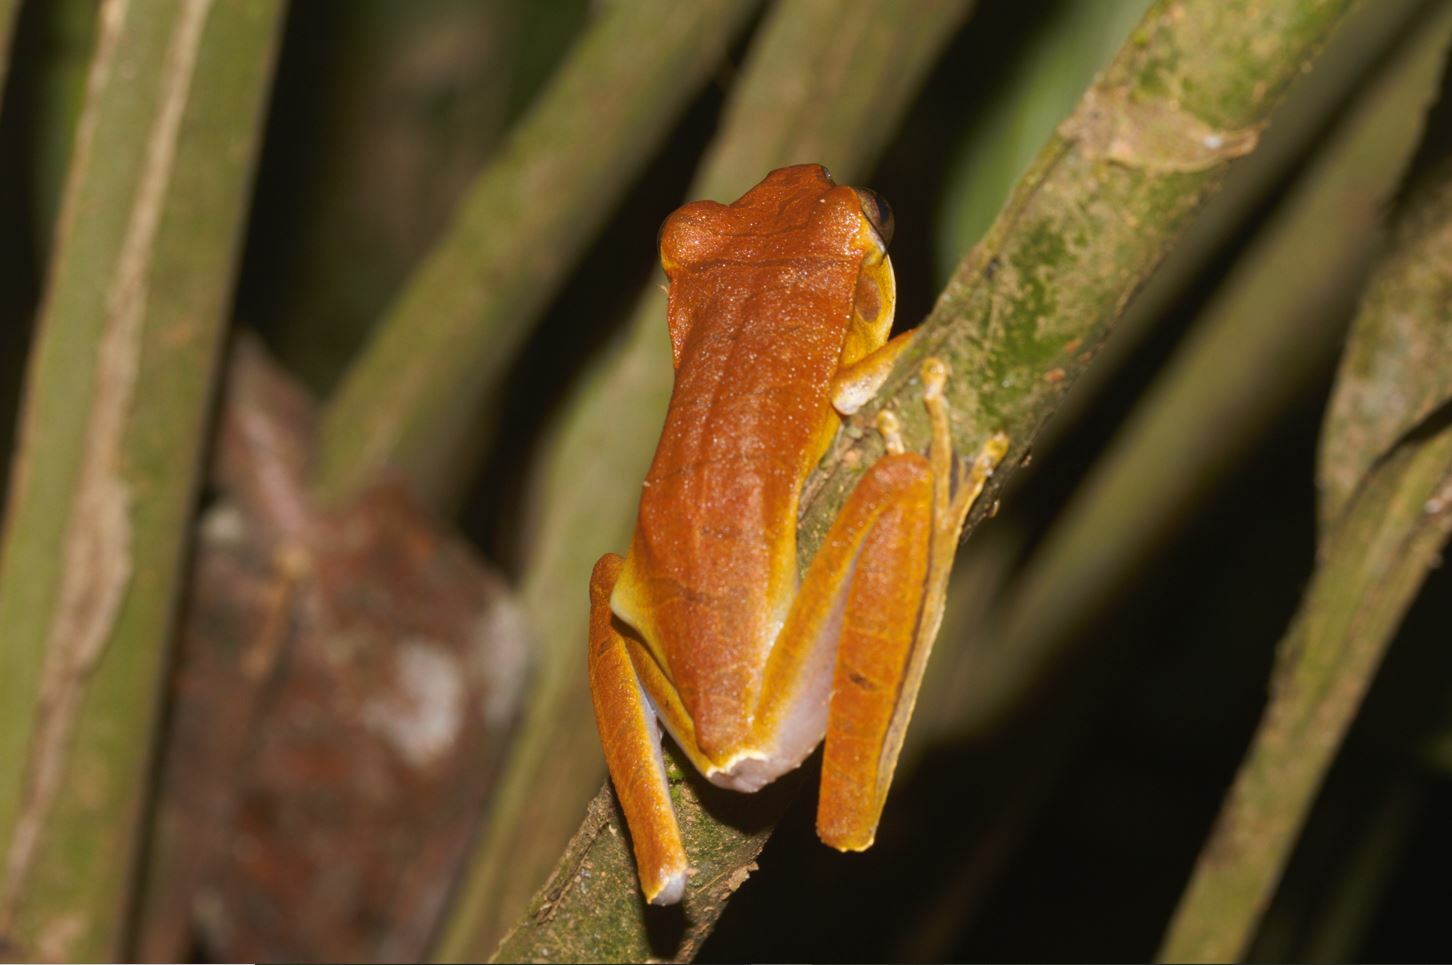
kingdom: Animalia
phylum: Chordata
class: Amphibia
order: Anura
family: Hylidae
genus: Boana
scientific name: Boana multifasciata
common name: Many-banded treefrog
